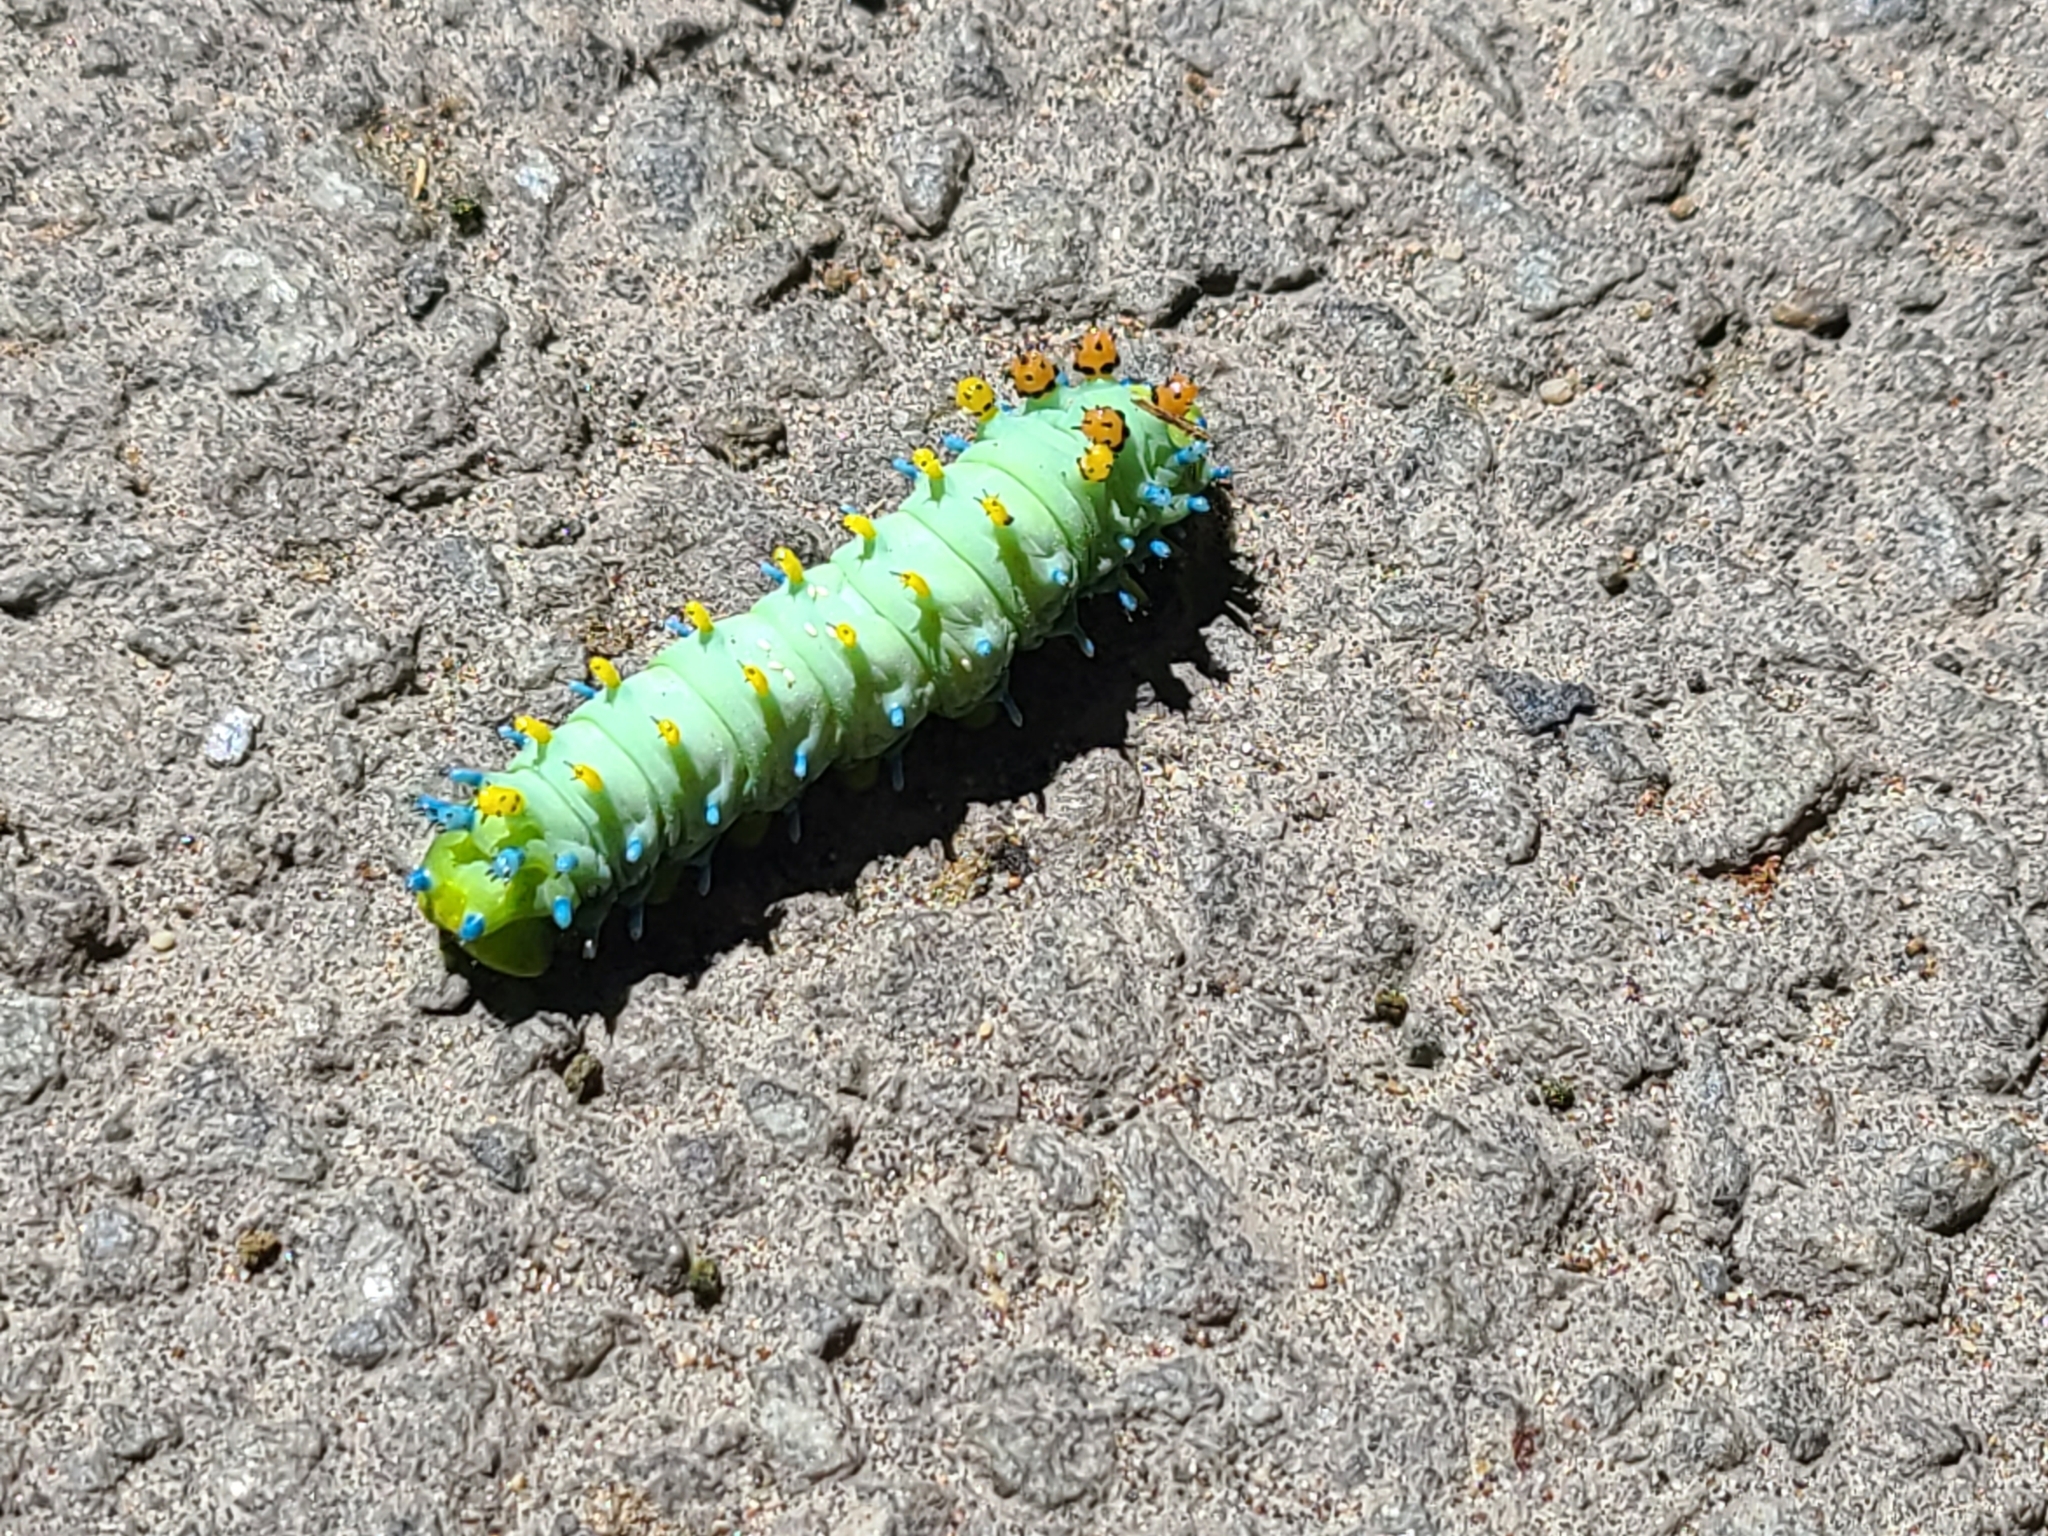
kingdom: Animalia
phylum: Arthropoda
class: Insecta
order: Lepidoptera
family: Saturniidae
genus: Hyalophora
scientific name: Hyalophora cecropia
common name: Cecropia silkmoth
